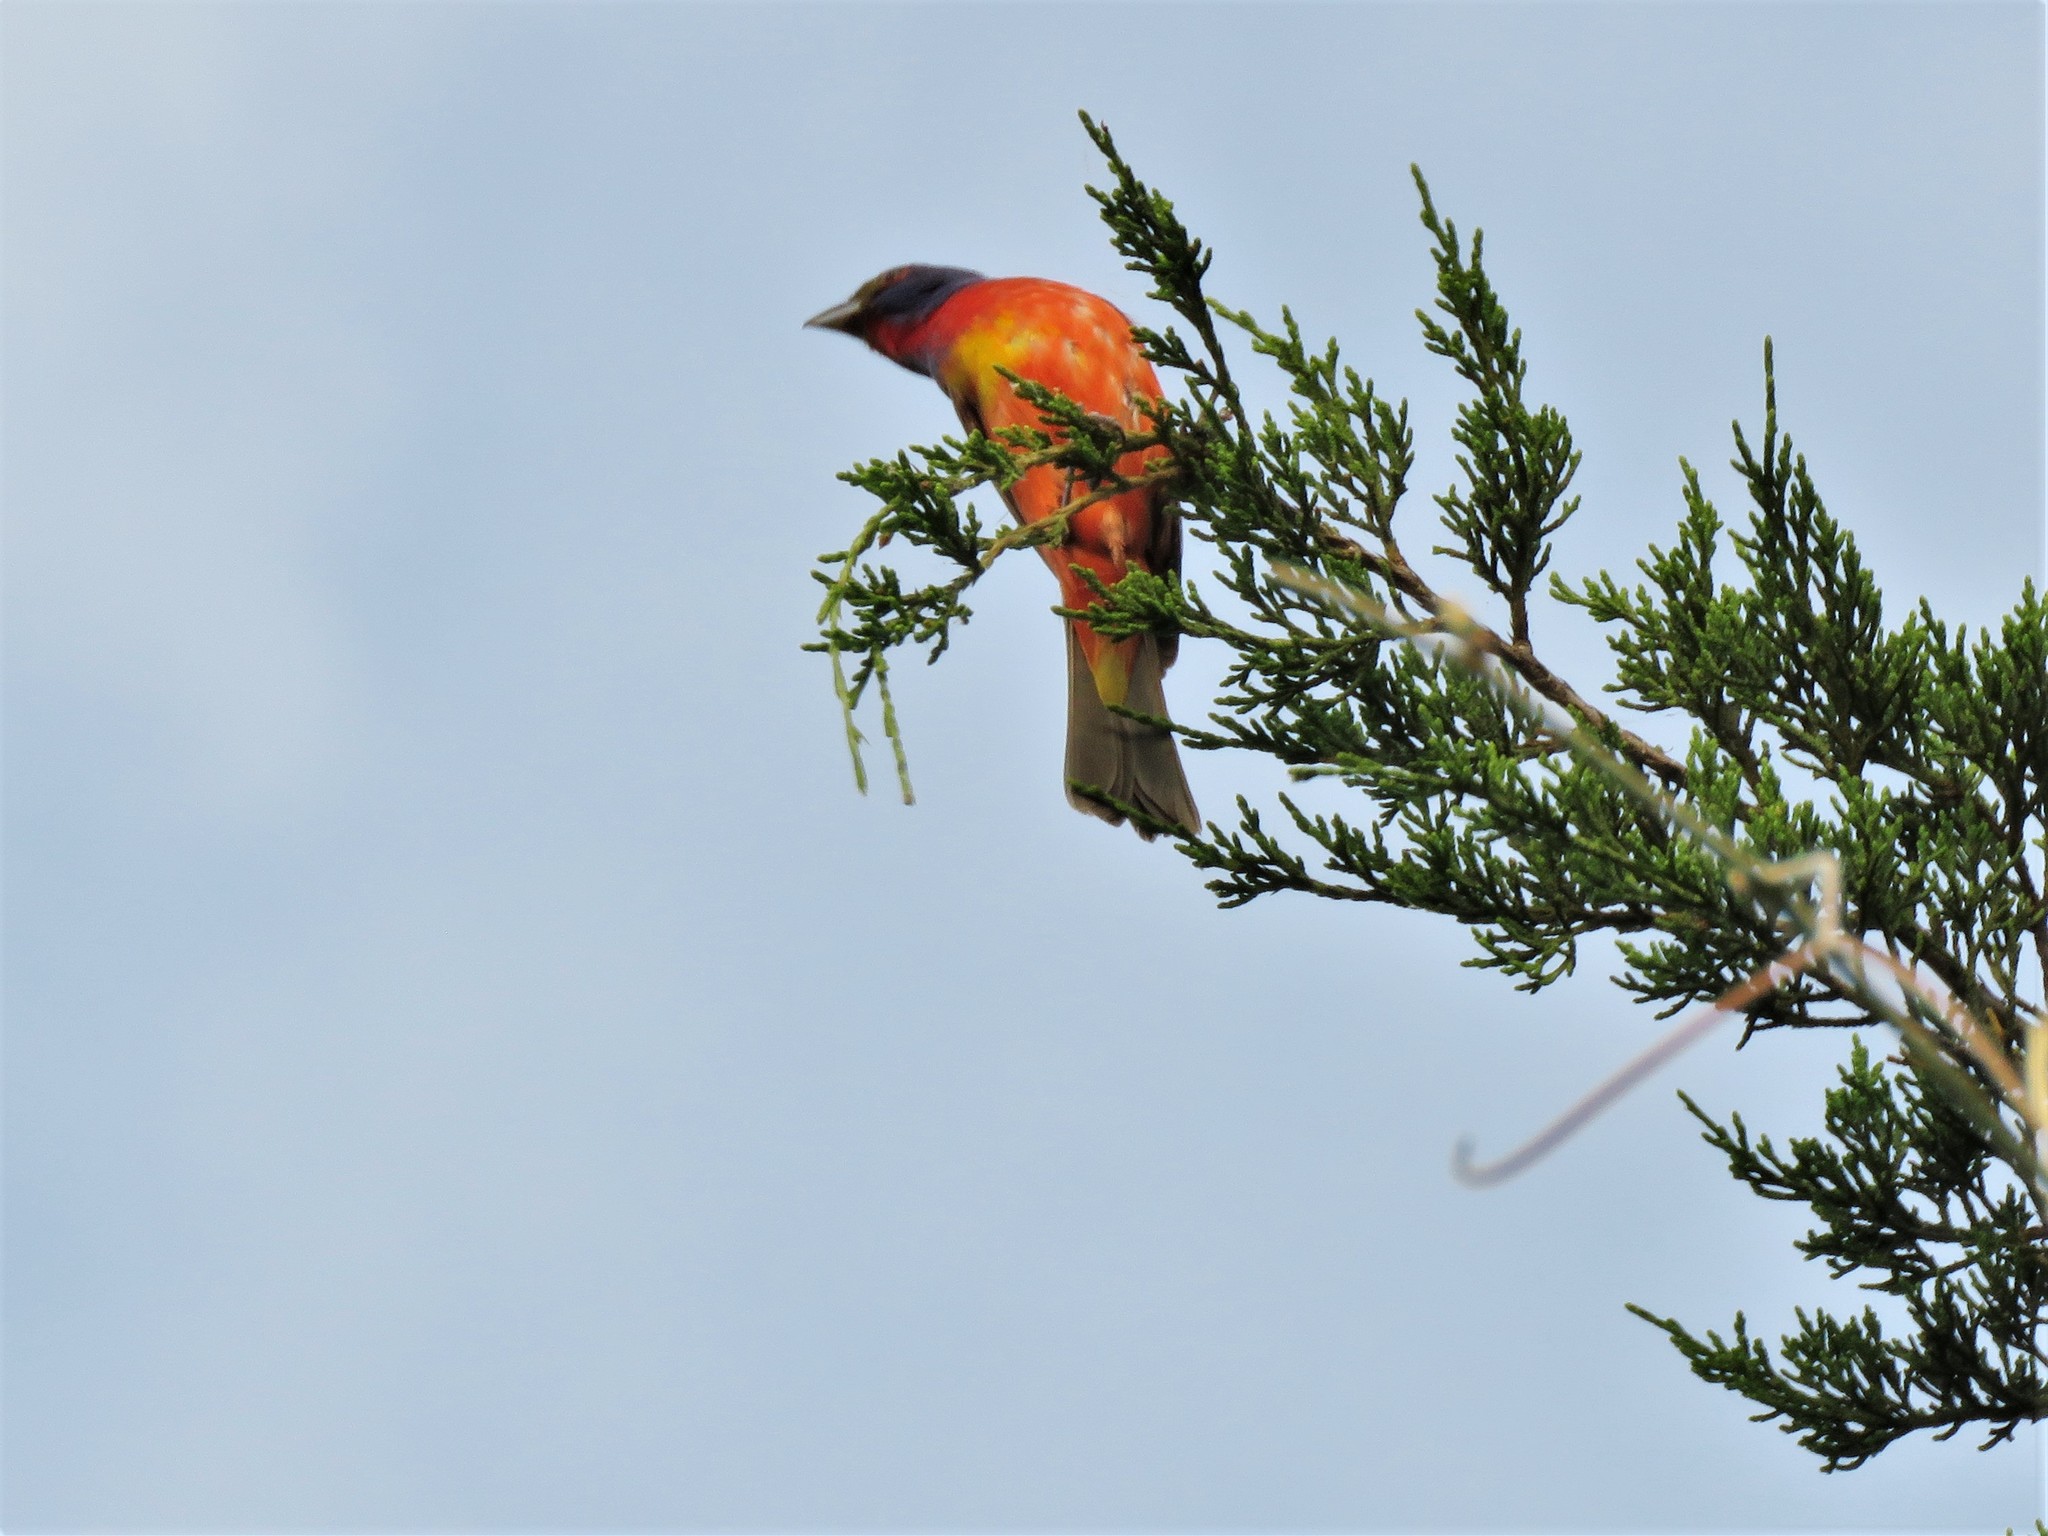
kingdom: Animalia
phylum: Chordata
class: Aves
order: Passeriformes
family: Cardinalidae
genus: Passerina
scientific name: Passerina ciris
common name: Painted bunting
